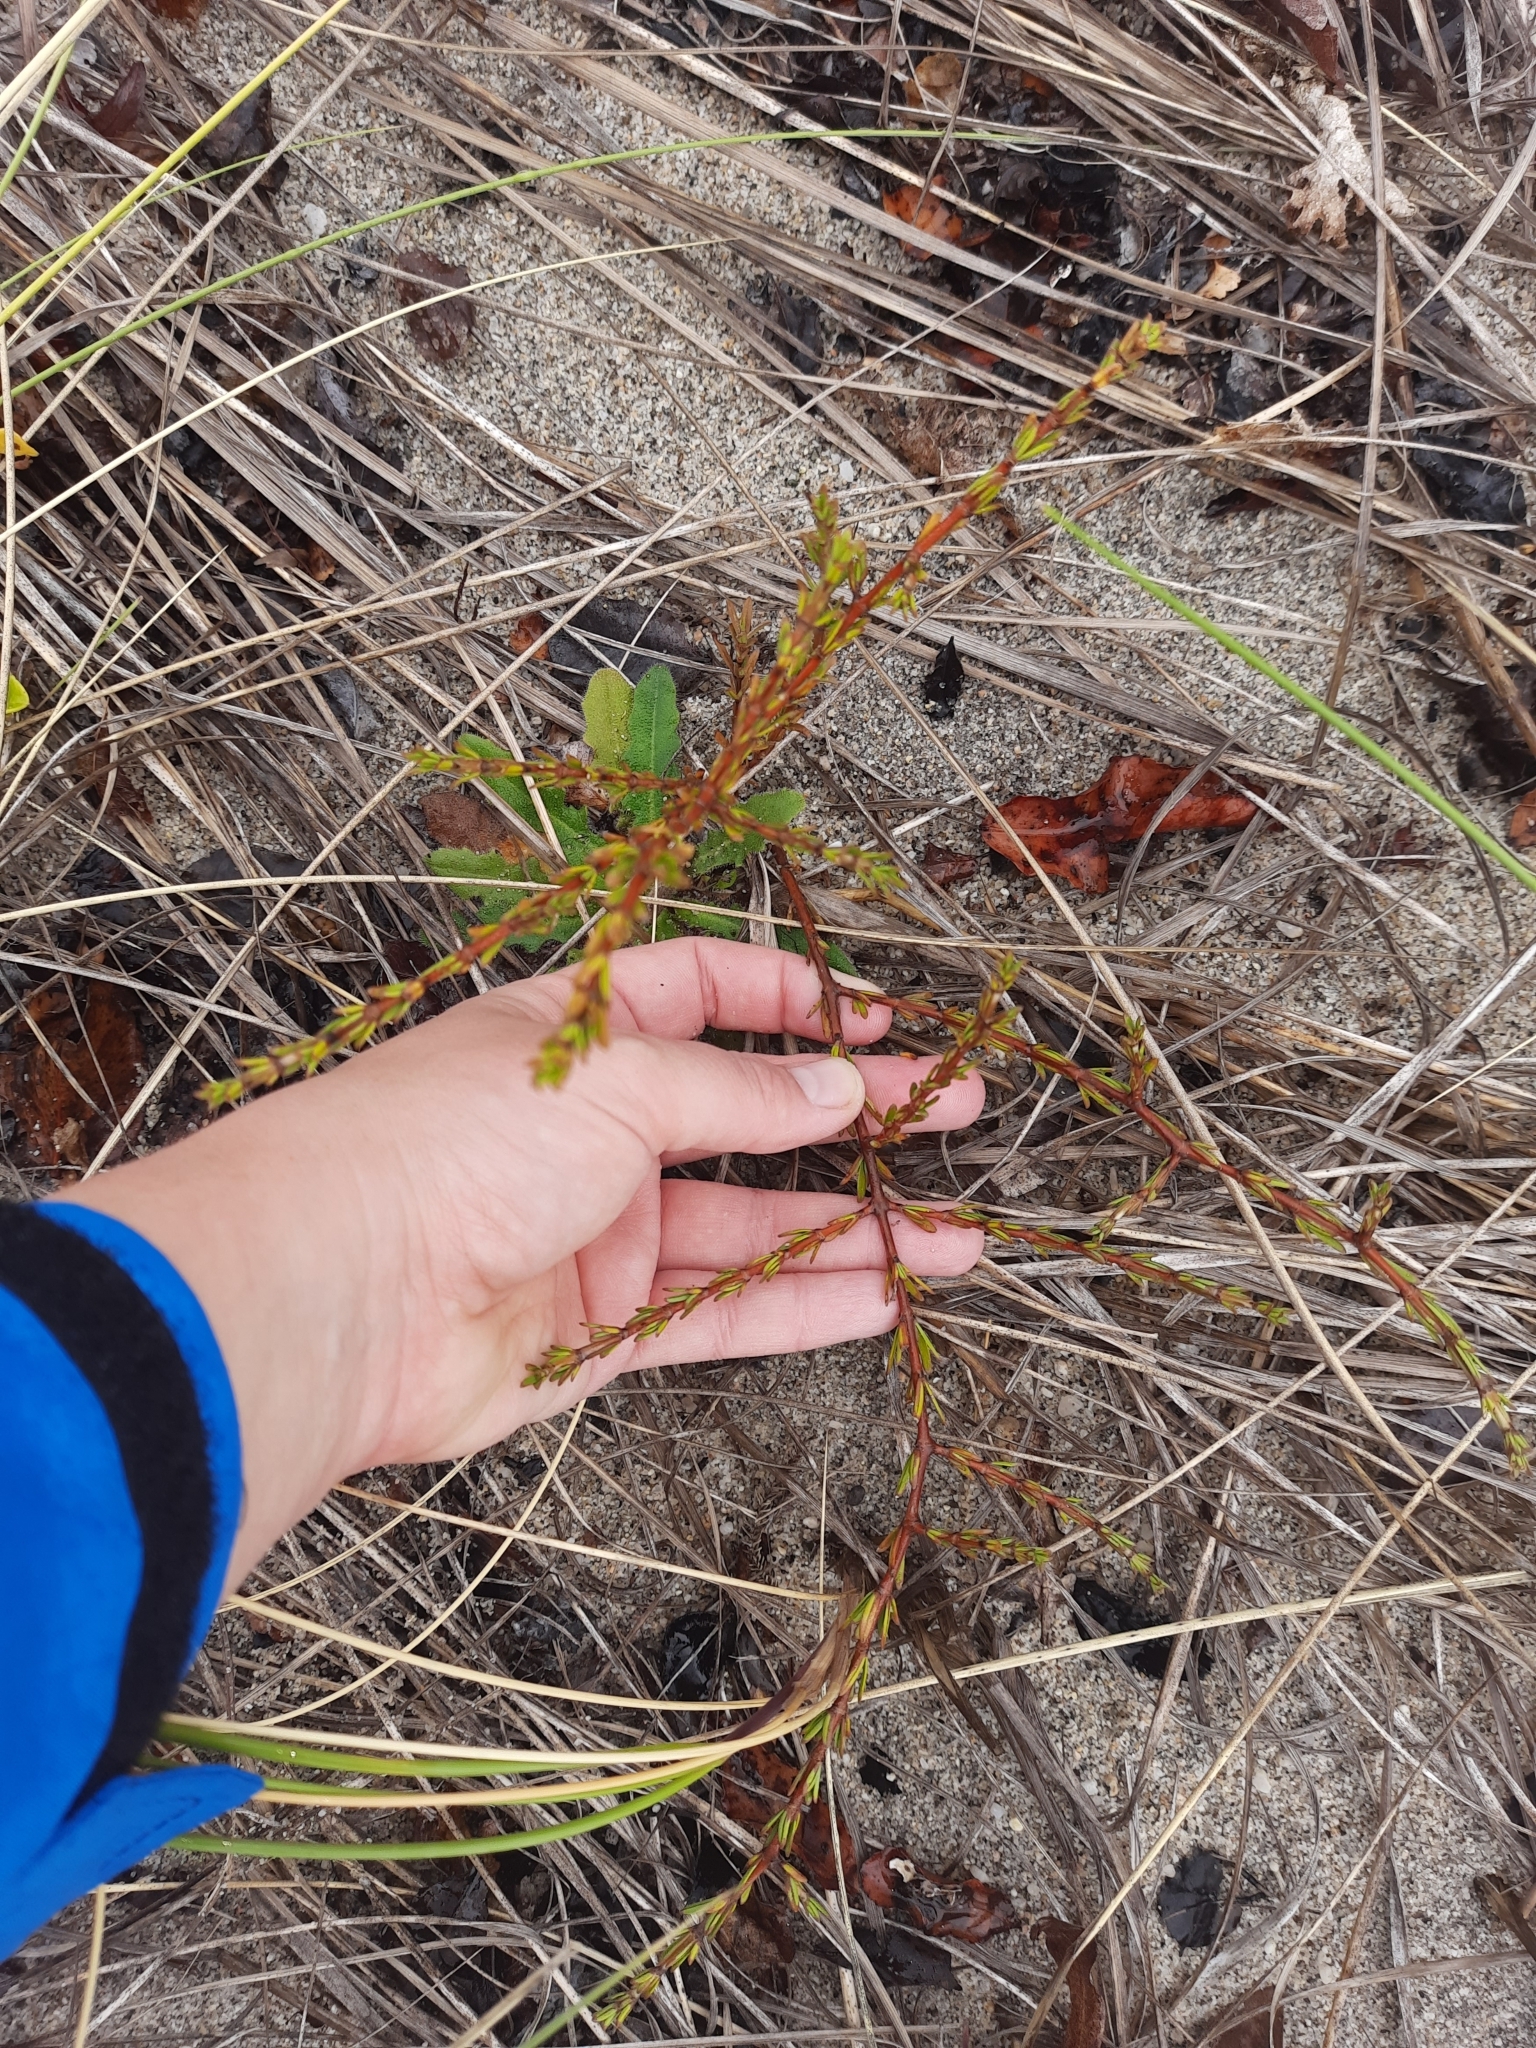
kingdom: Plantae
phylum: Tracheophyta
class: Magnoliopsida
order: Gentianales
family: Rubiaceae
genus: Coprosma
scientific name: Coprosma acerosa
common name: Sand coprosma
